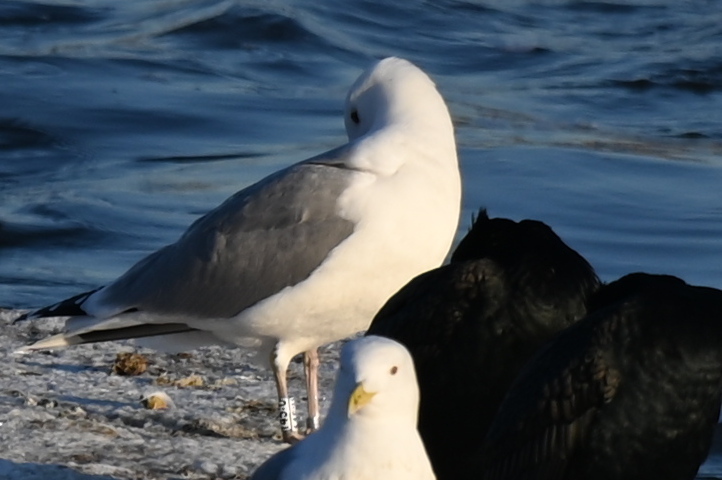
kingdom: Animalia
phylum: Chordata
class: Aves
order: Charadriiformes
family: Laridae
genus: Larus
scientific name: Larus cachinnans
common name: Caspian gull
